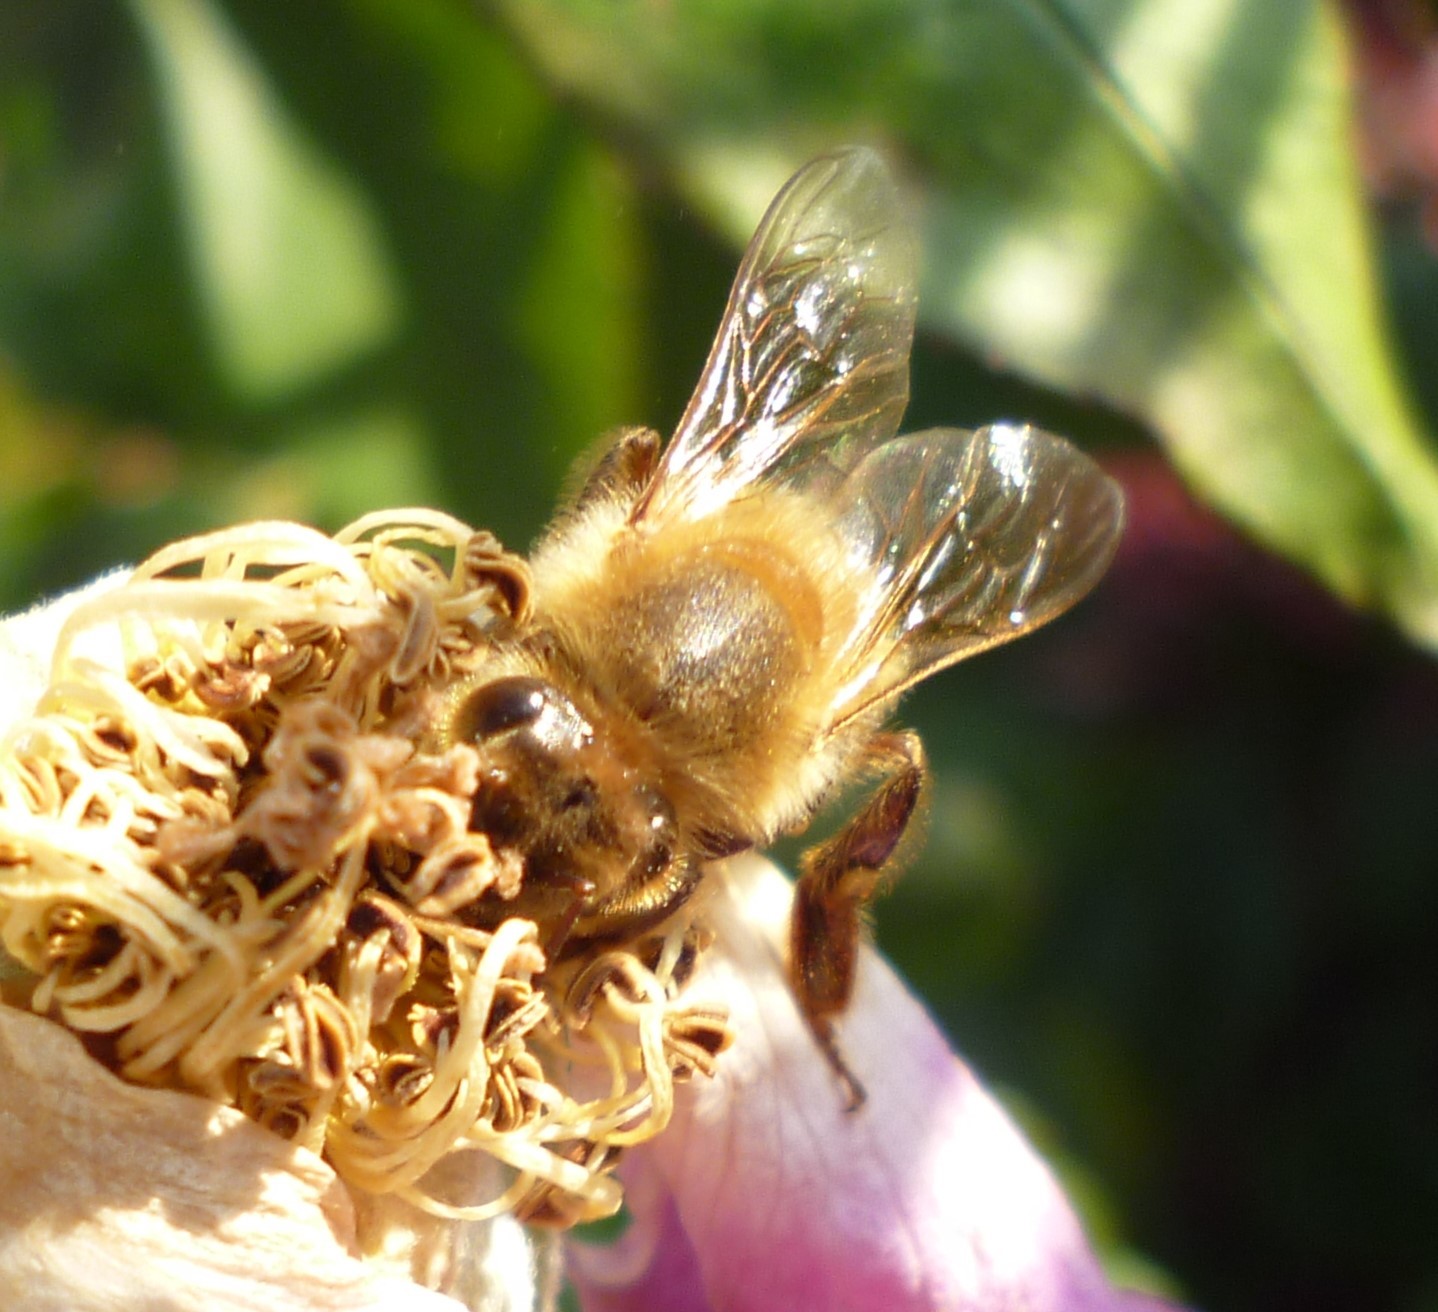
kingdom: Animalia
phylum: Arthropoda
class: Insecta
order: Hymenoptera
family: Apidae
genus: Apis
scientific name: Apis mellifera
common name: Honey bee
